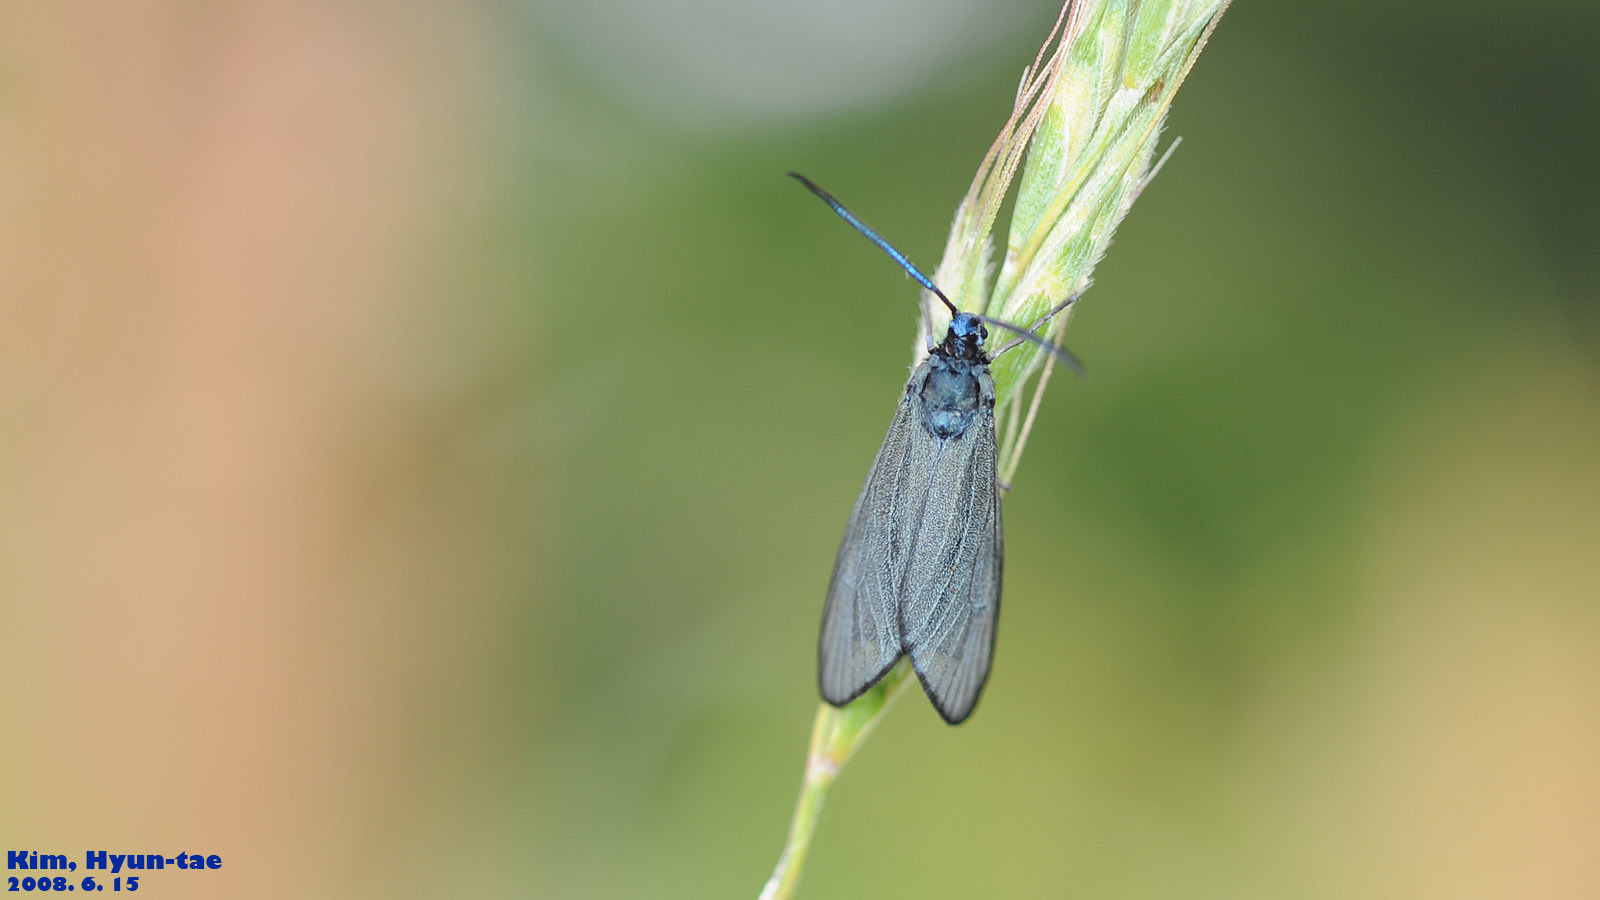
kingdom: Animalia
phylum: Arthropoda
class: Insecta
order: Lepidoptera
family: Zygaenidae
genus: Artona
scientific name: Artona martini
